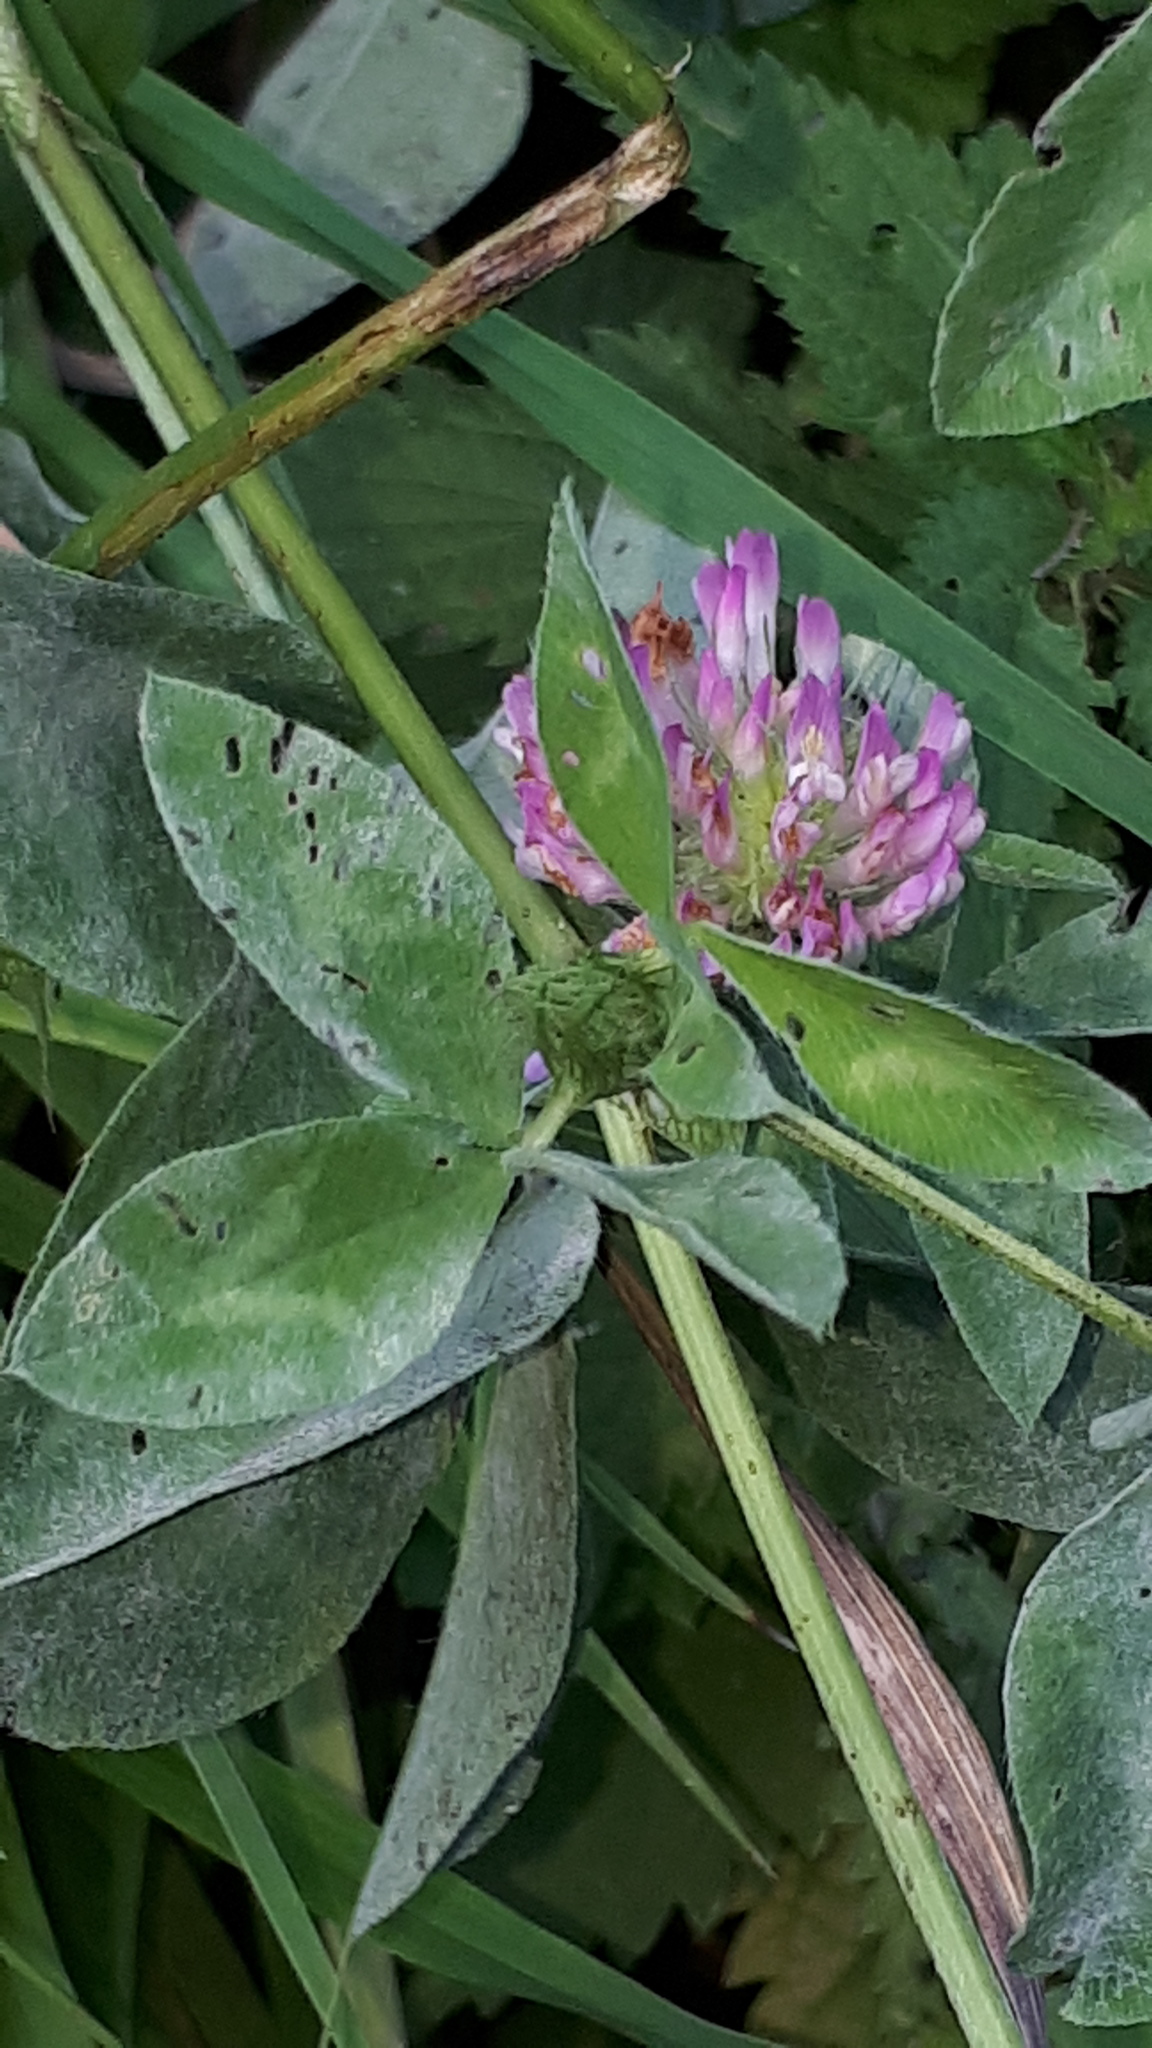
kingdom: Plantae
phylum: Tracheophyta
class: Magnoliopsida
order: Fabales
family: Fabaceae
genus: Trifolium
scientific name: Trifolium pratense
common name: Red clover
